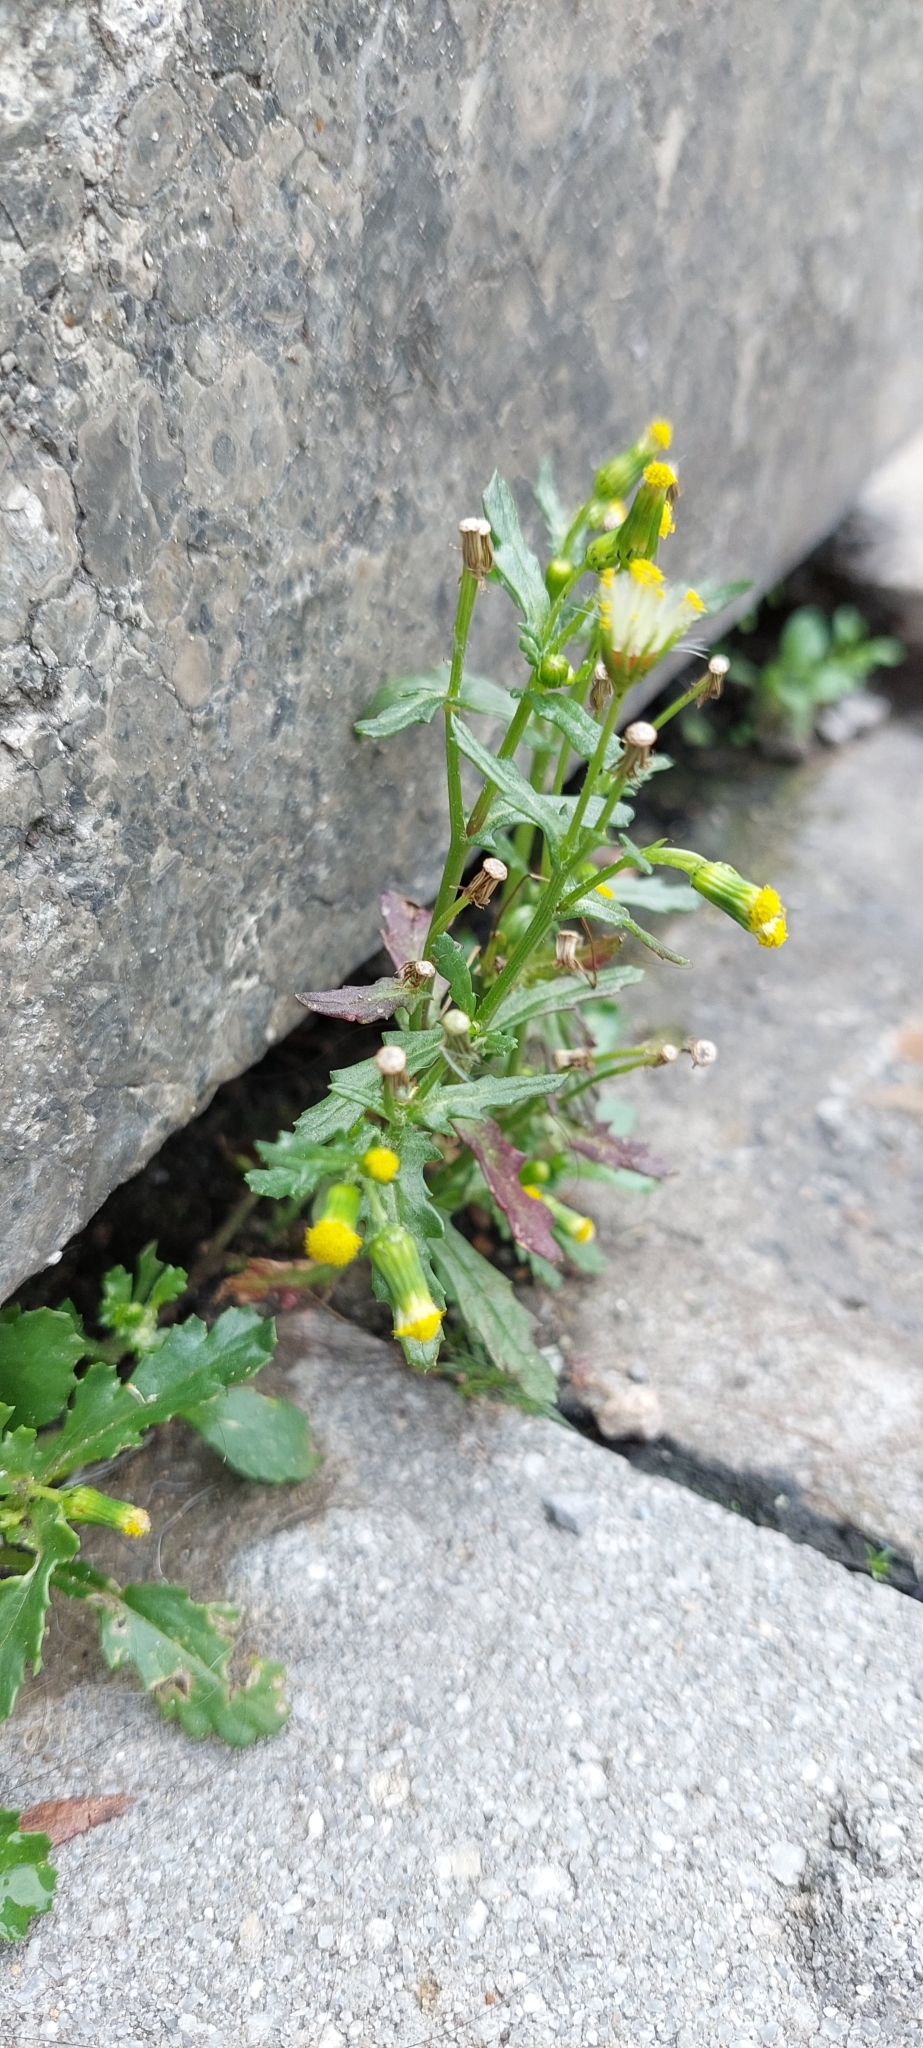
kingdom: Plantae
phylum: Tracheophyta
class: Magnoliopsida
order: Asterales
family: Asteraceae
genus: Senecio
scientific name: Senecio vulgaris
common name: Old-man-in-the-spring
